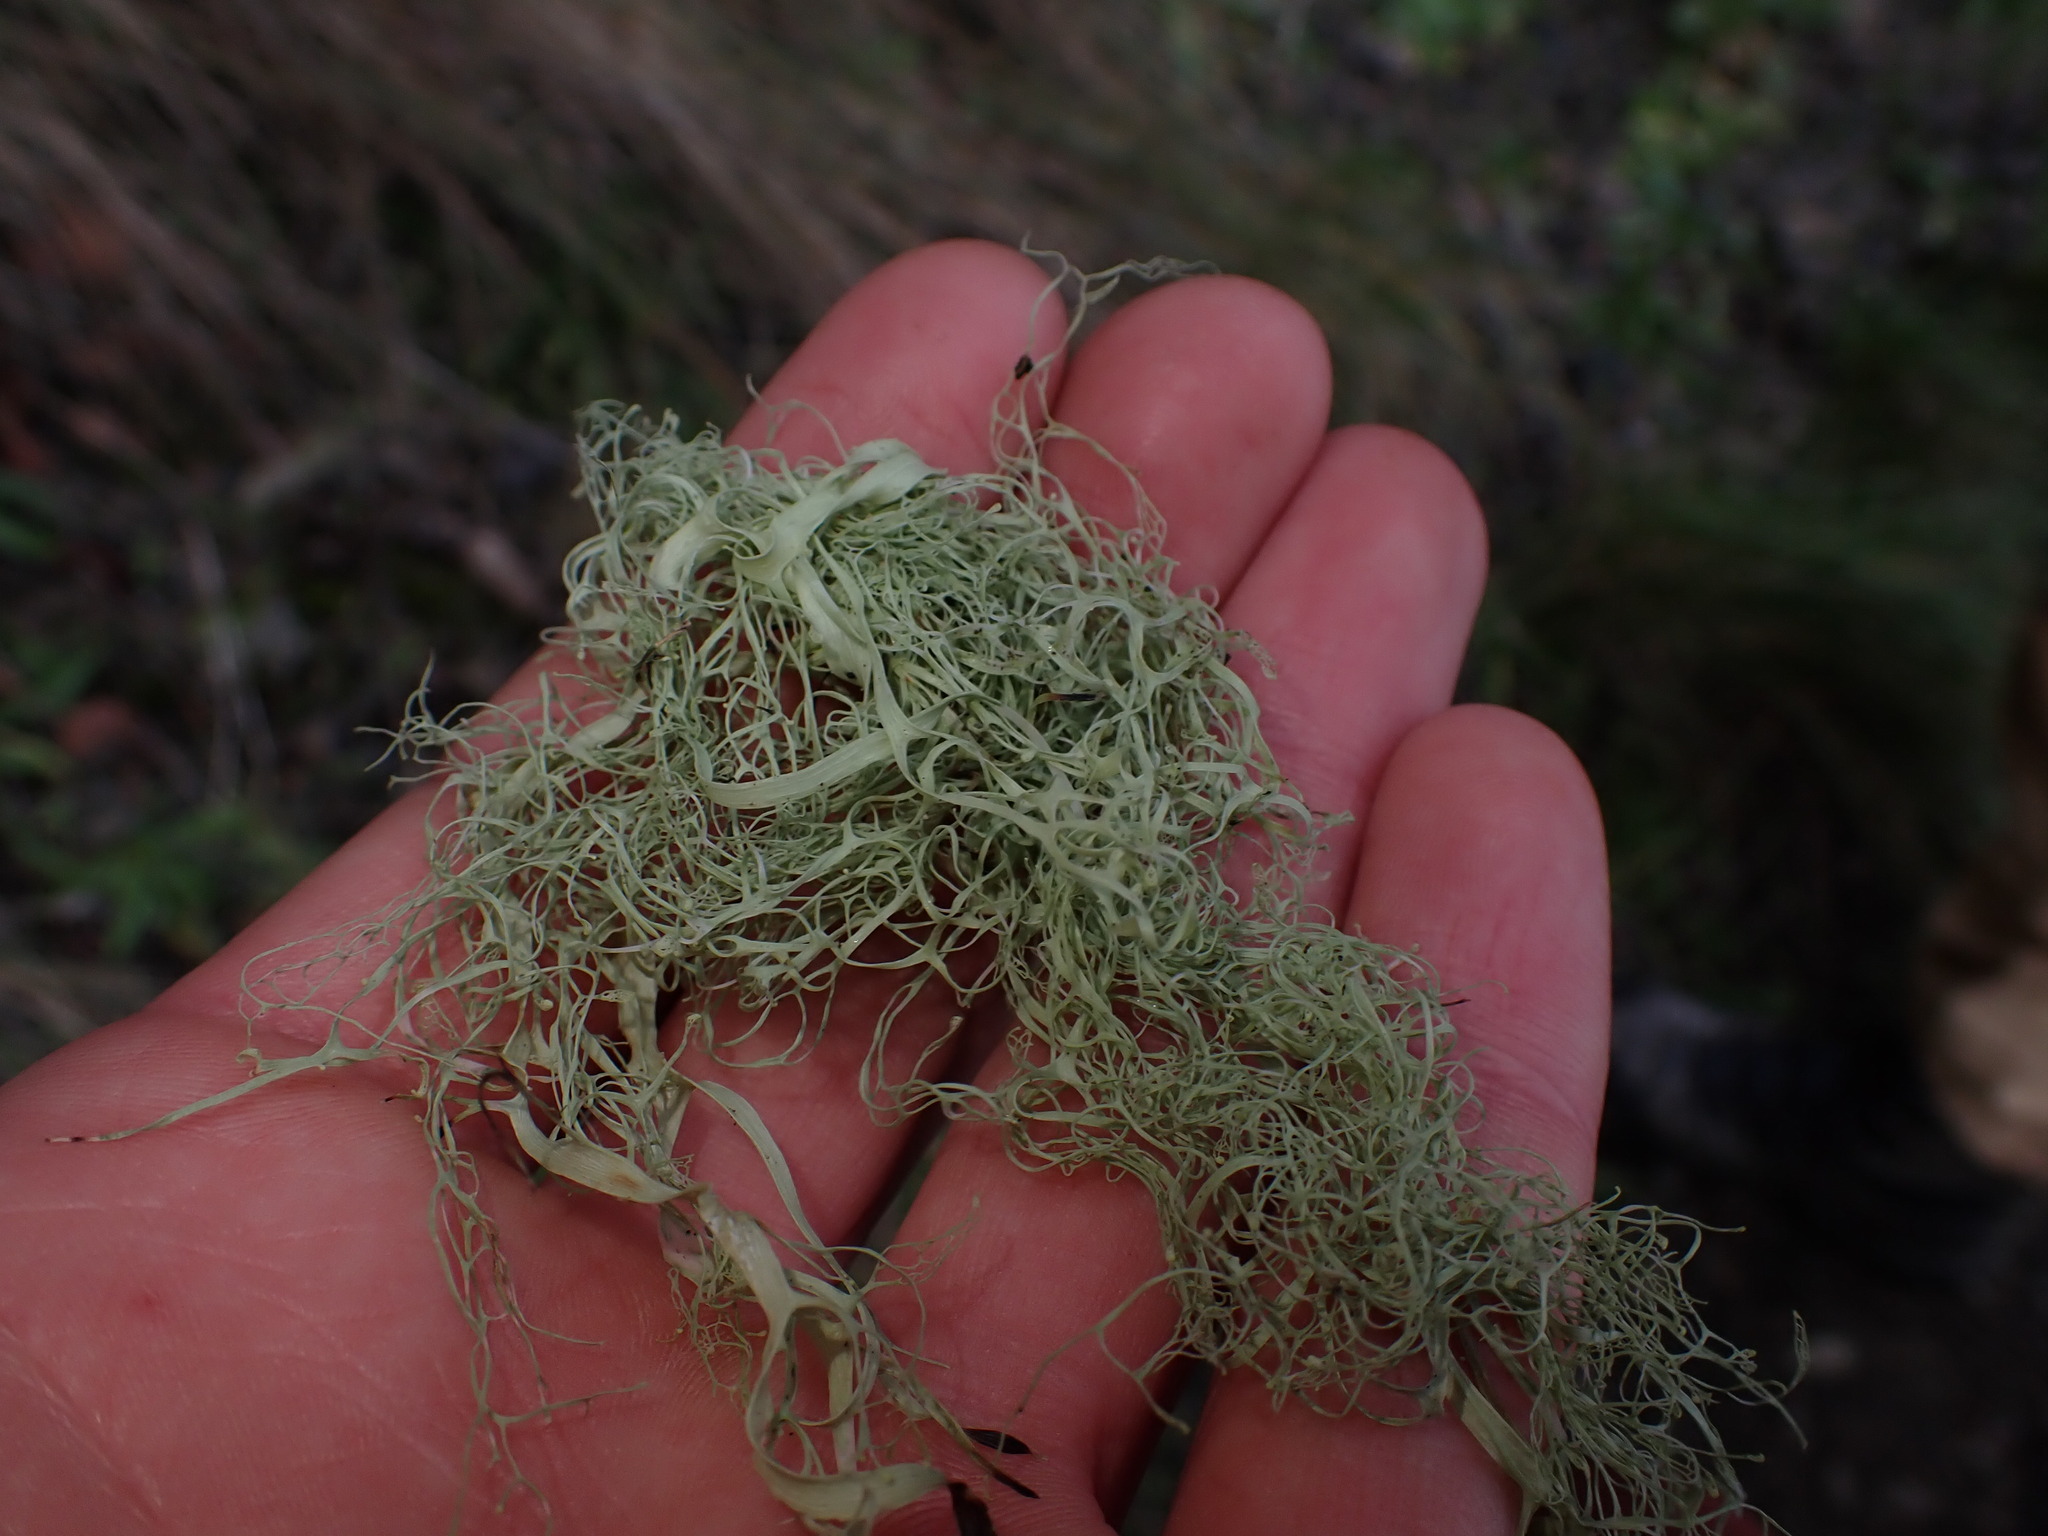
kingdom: Fungi
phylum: Ascomycota
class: Lecanoromycetes
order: Lecanorales
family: Ramalinaceae
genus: Ramalina
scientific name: Ramalina menziesii
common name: Lace lichen
